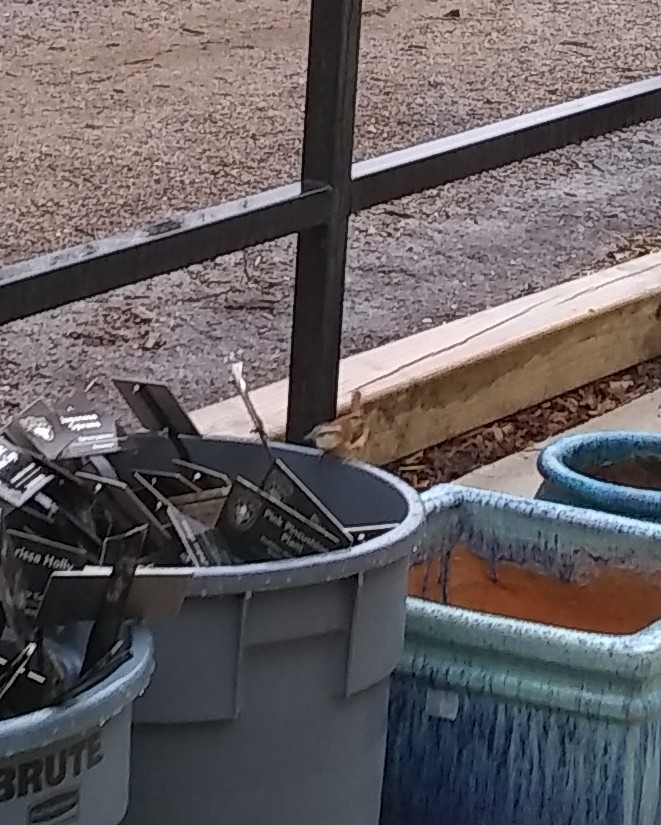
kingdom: Animalia
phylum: Chordata
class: Aves
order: Passeriformes
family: Troglodytidae
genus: Thryothorus
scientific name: Thryothorus ludovicianus
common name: Carolina wren
